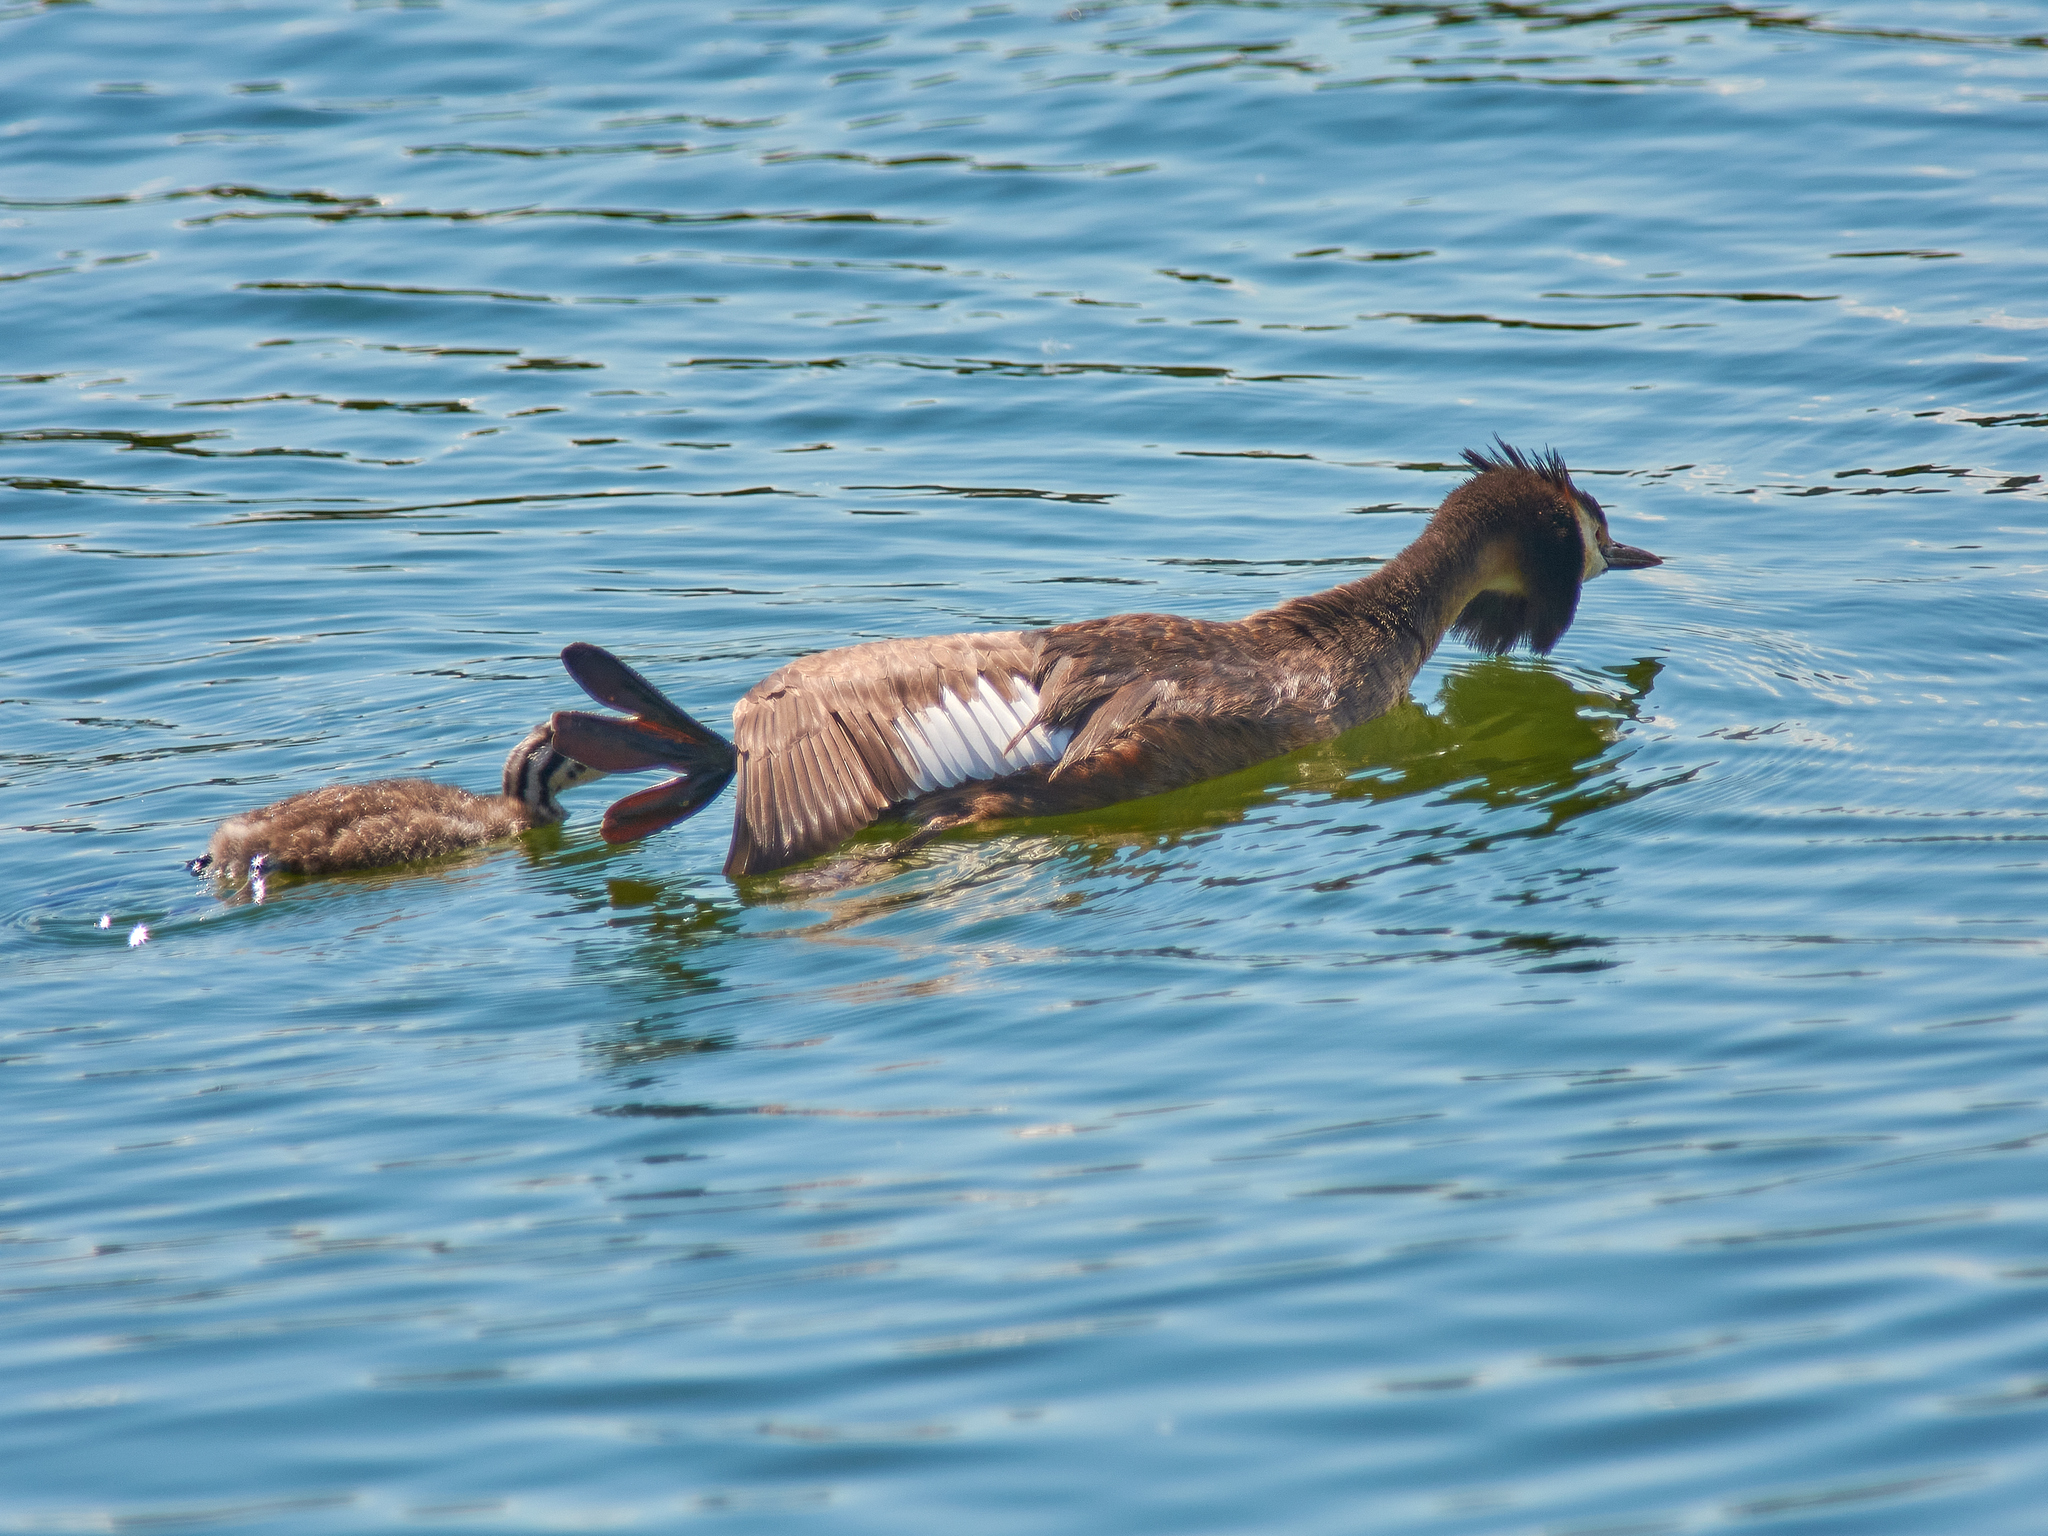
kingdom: Animalia
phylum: Chordata
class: Aves
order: Podicipediformes
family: Podicipedidae
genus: Podiceps
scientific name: Podiceps cristatus
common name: Great crested grebe
